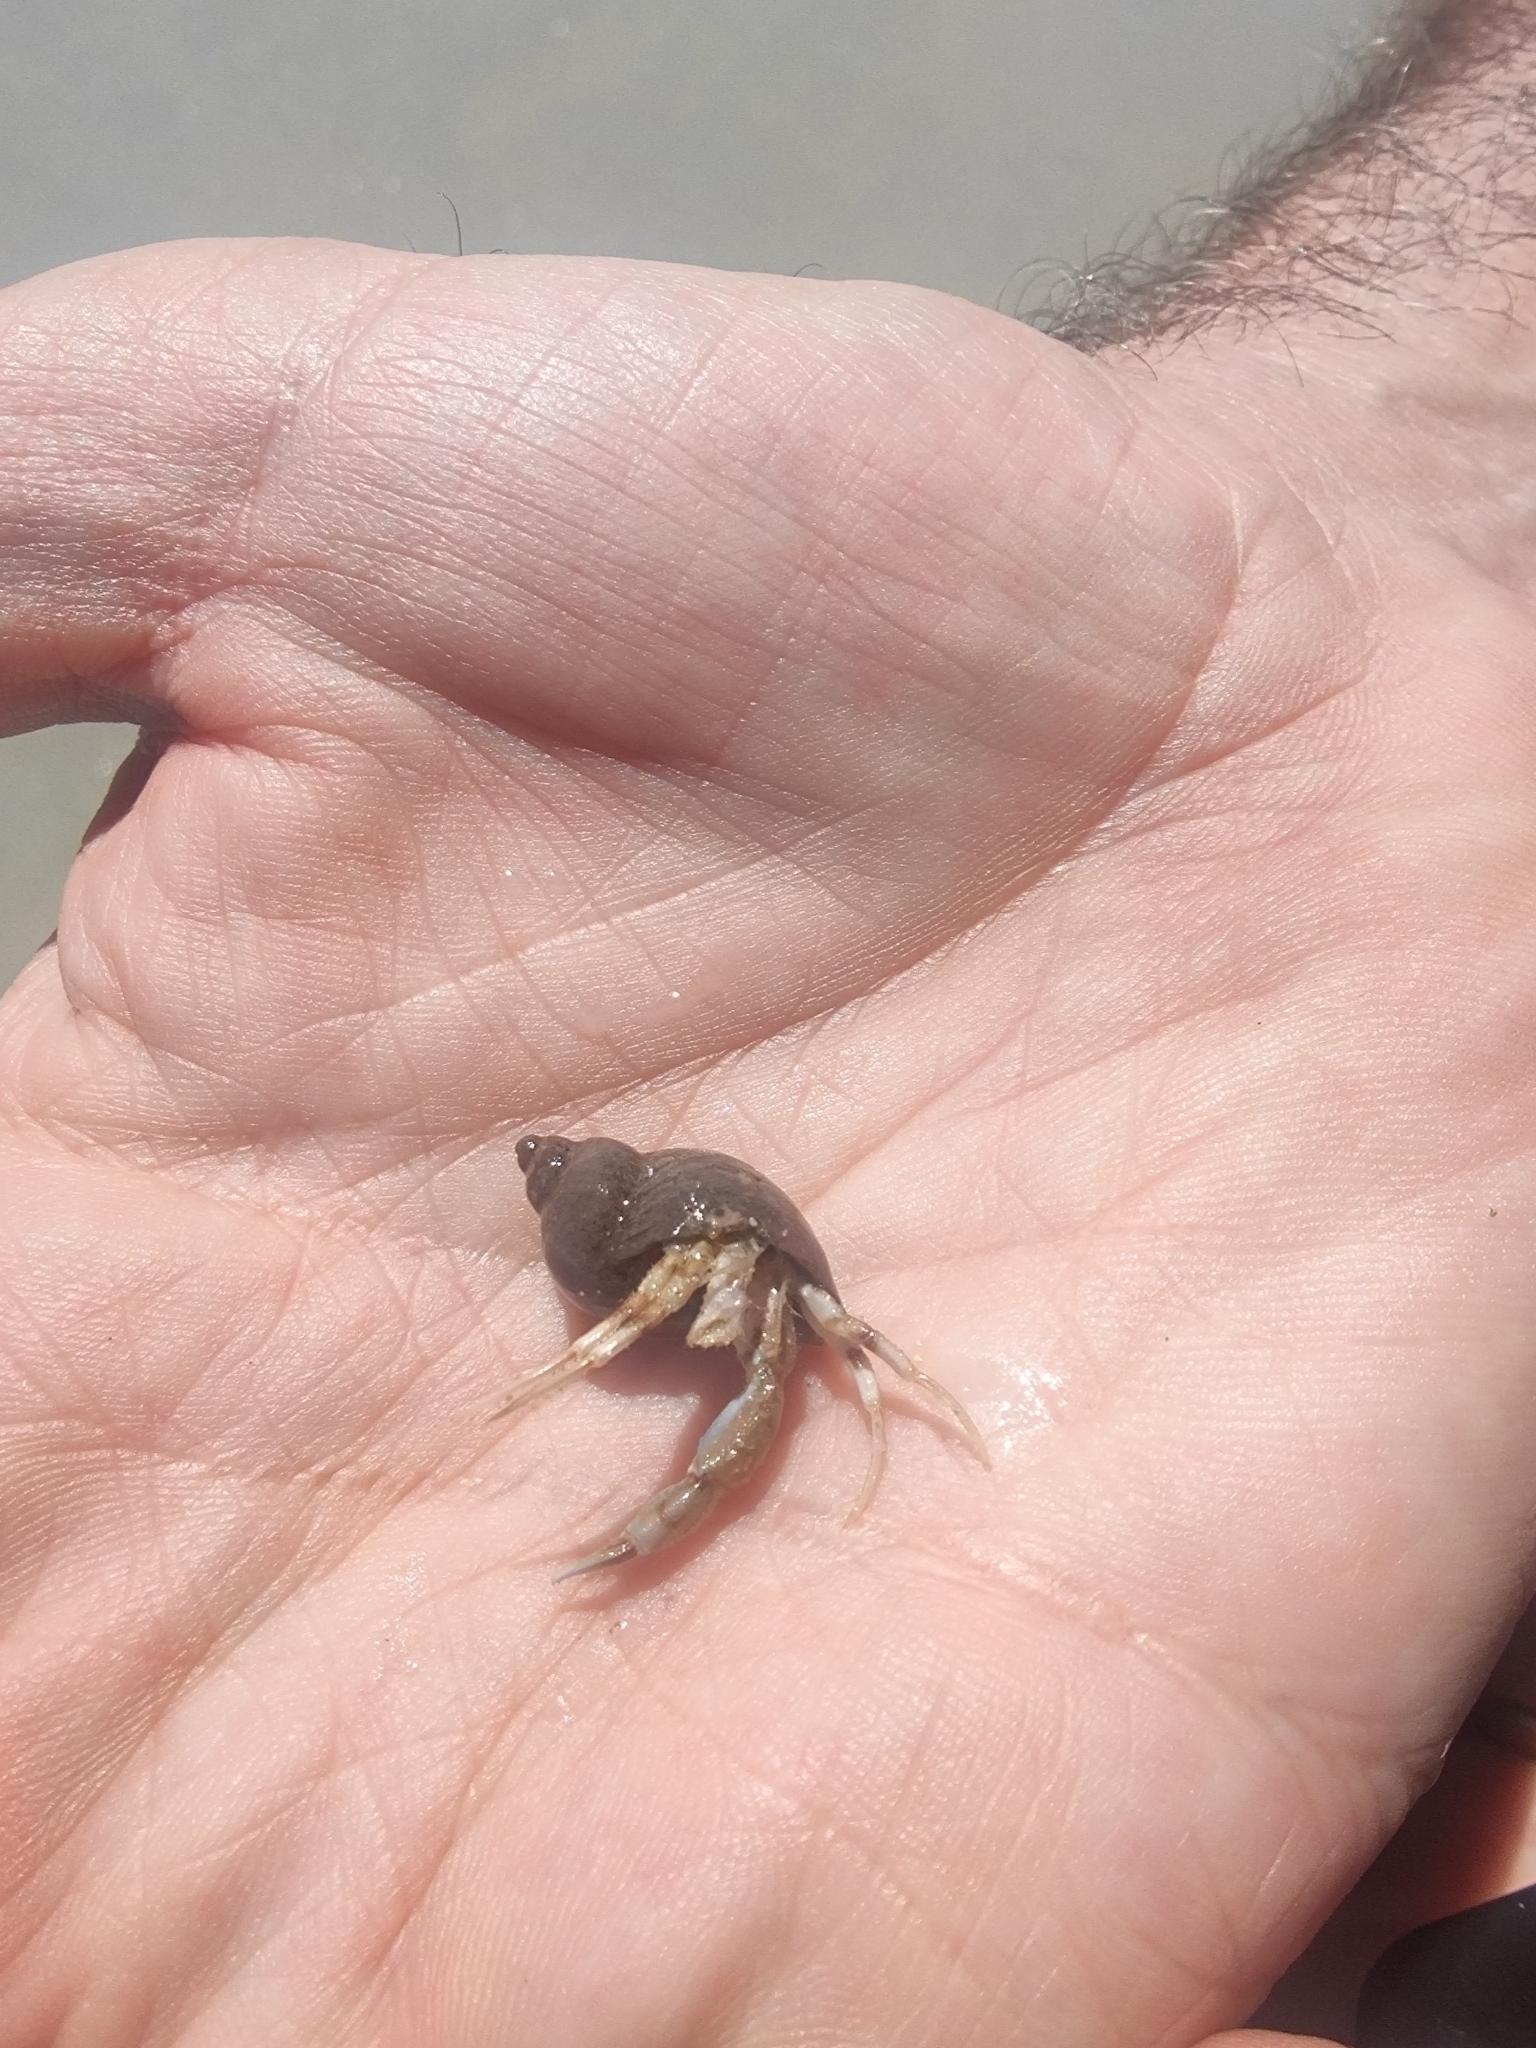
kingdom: Animalia
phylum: Arthropoda
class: Malacostraca
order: Decapoda
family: Diogenidae
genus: Diogenes
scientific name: Diogenes pugilator
